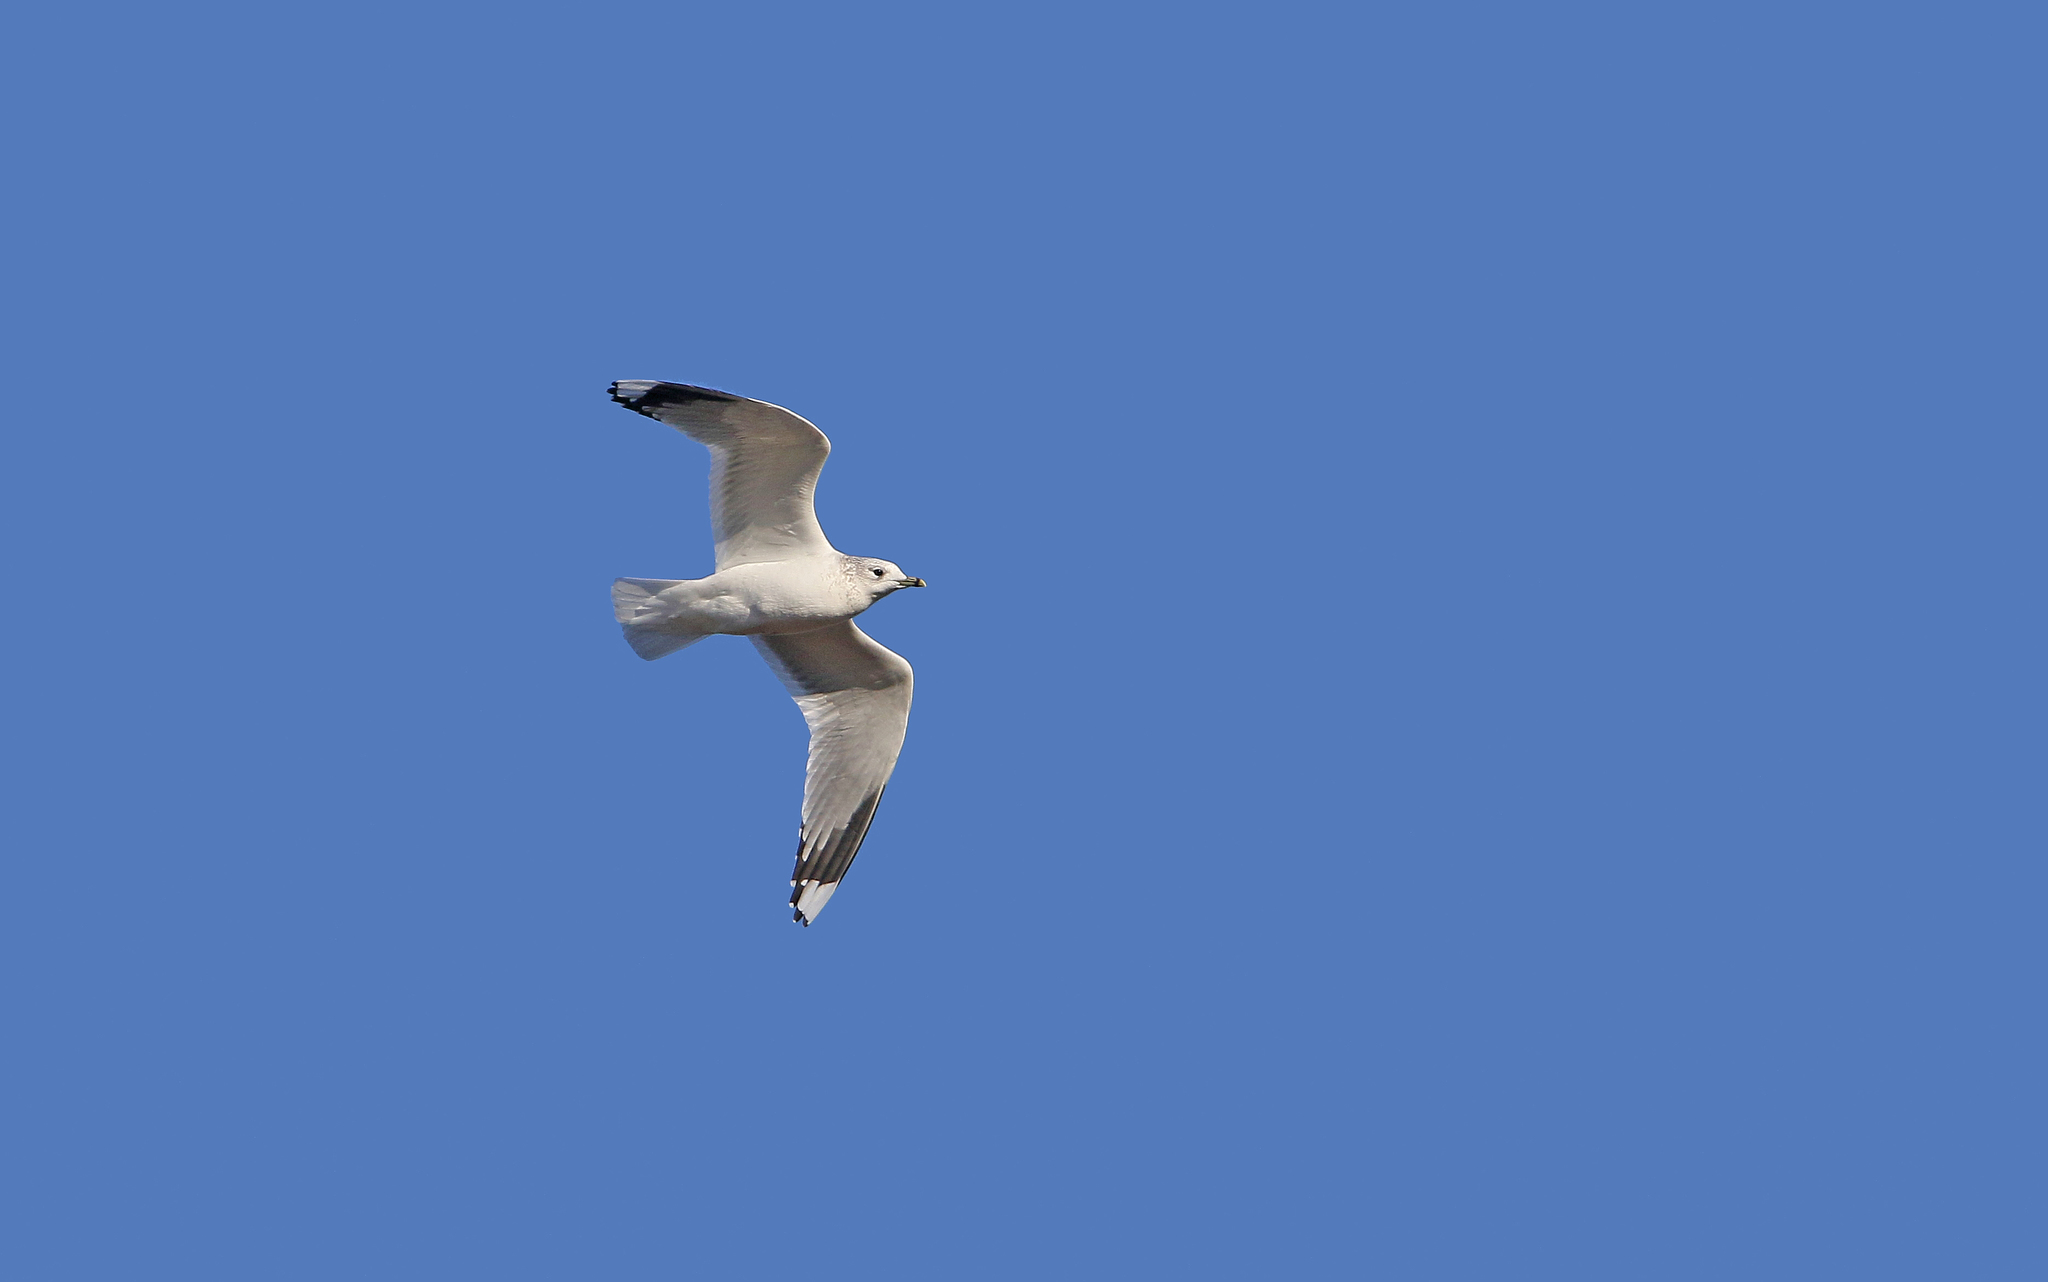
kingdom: Animalia
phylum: Chordata
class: Aves
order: Charadriiformes
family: Laridae
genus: Larus
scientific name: Larus canus
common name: Mew gull
